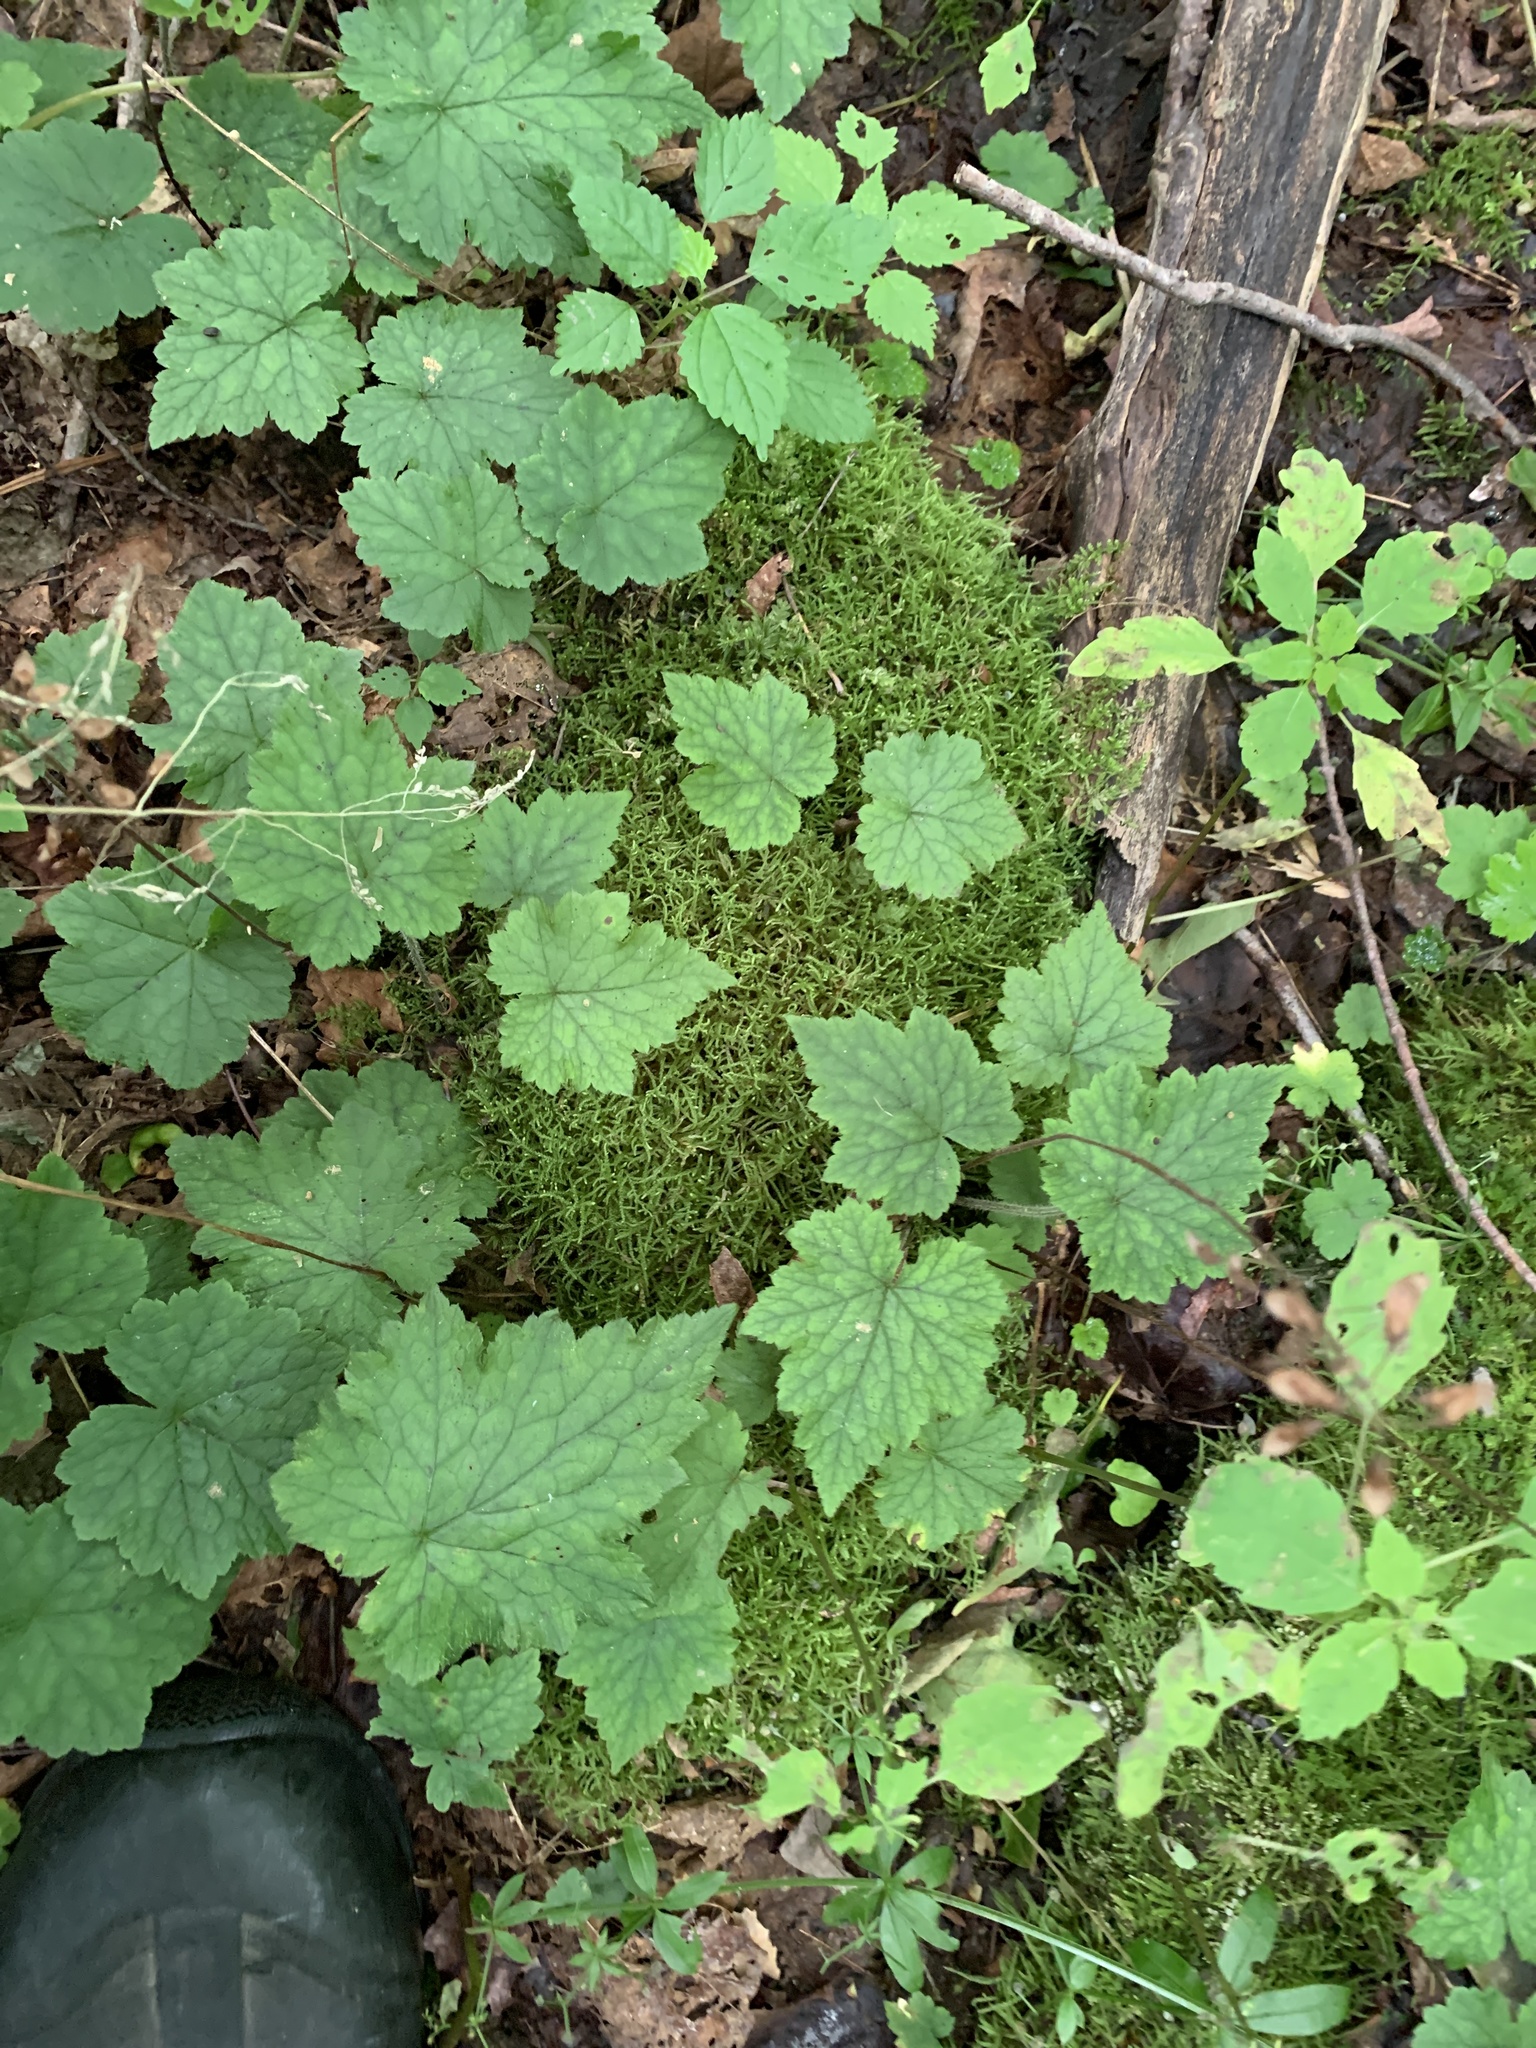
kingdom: Plantae
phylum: Tracheophyta
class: Magnoliopsida
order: Saxifragales
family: Saxifragaceae
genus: Tiarella
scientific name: Tiarella stolonifera
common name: Stoloniferous foamflower
